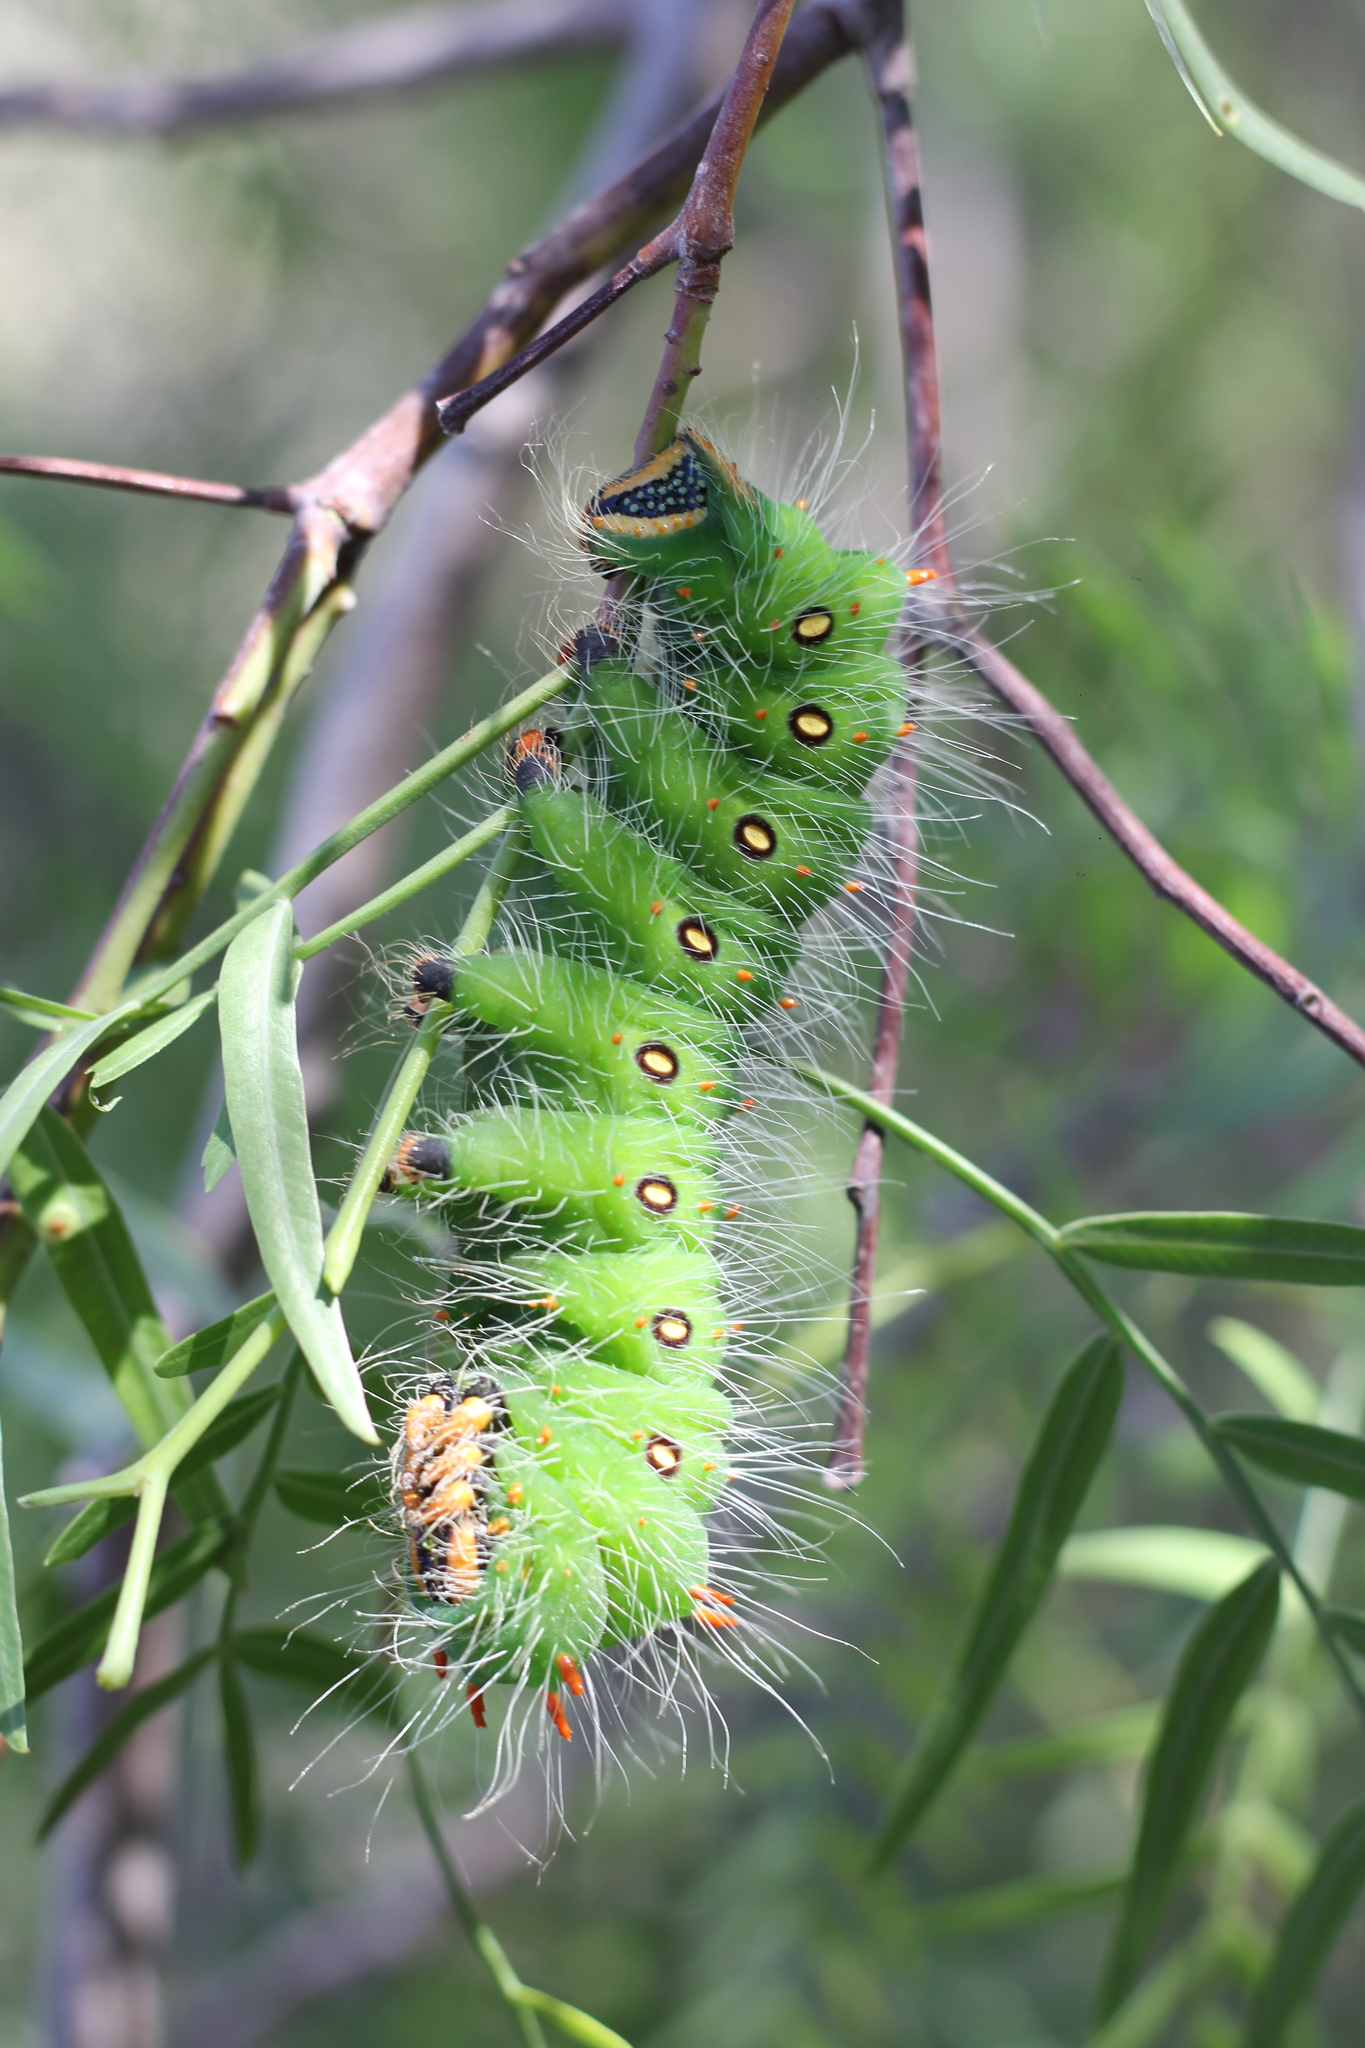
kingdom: Animalia
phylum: Arthropoda
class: Insecta
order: Lepidoptera
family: Saturniidae
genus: Eacles
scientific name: Eacles imperialis
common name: Imperial moth
